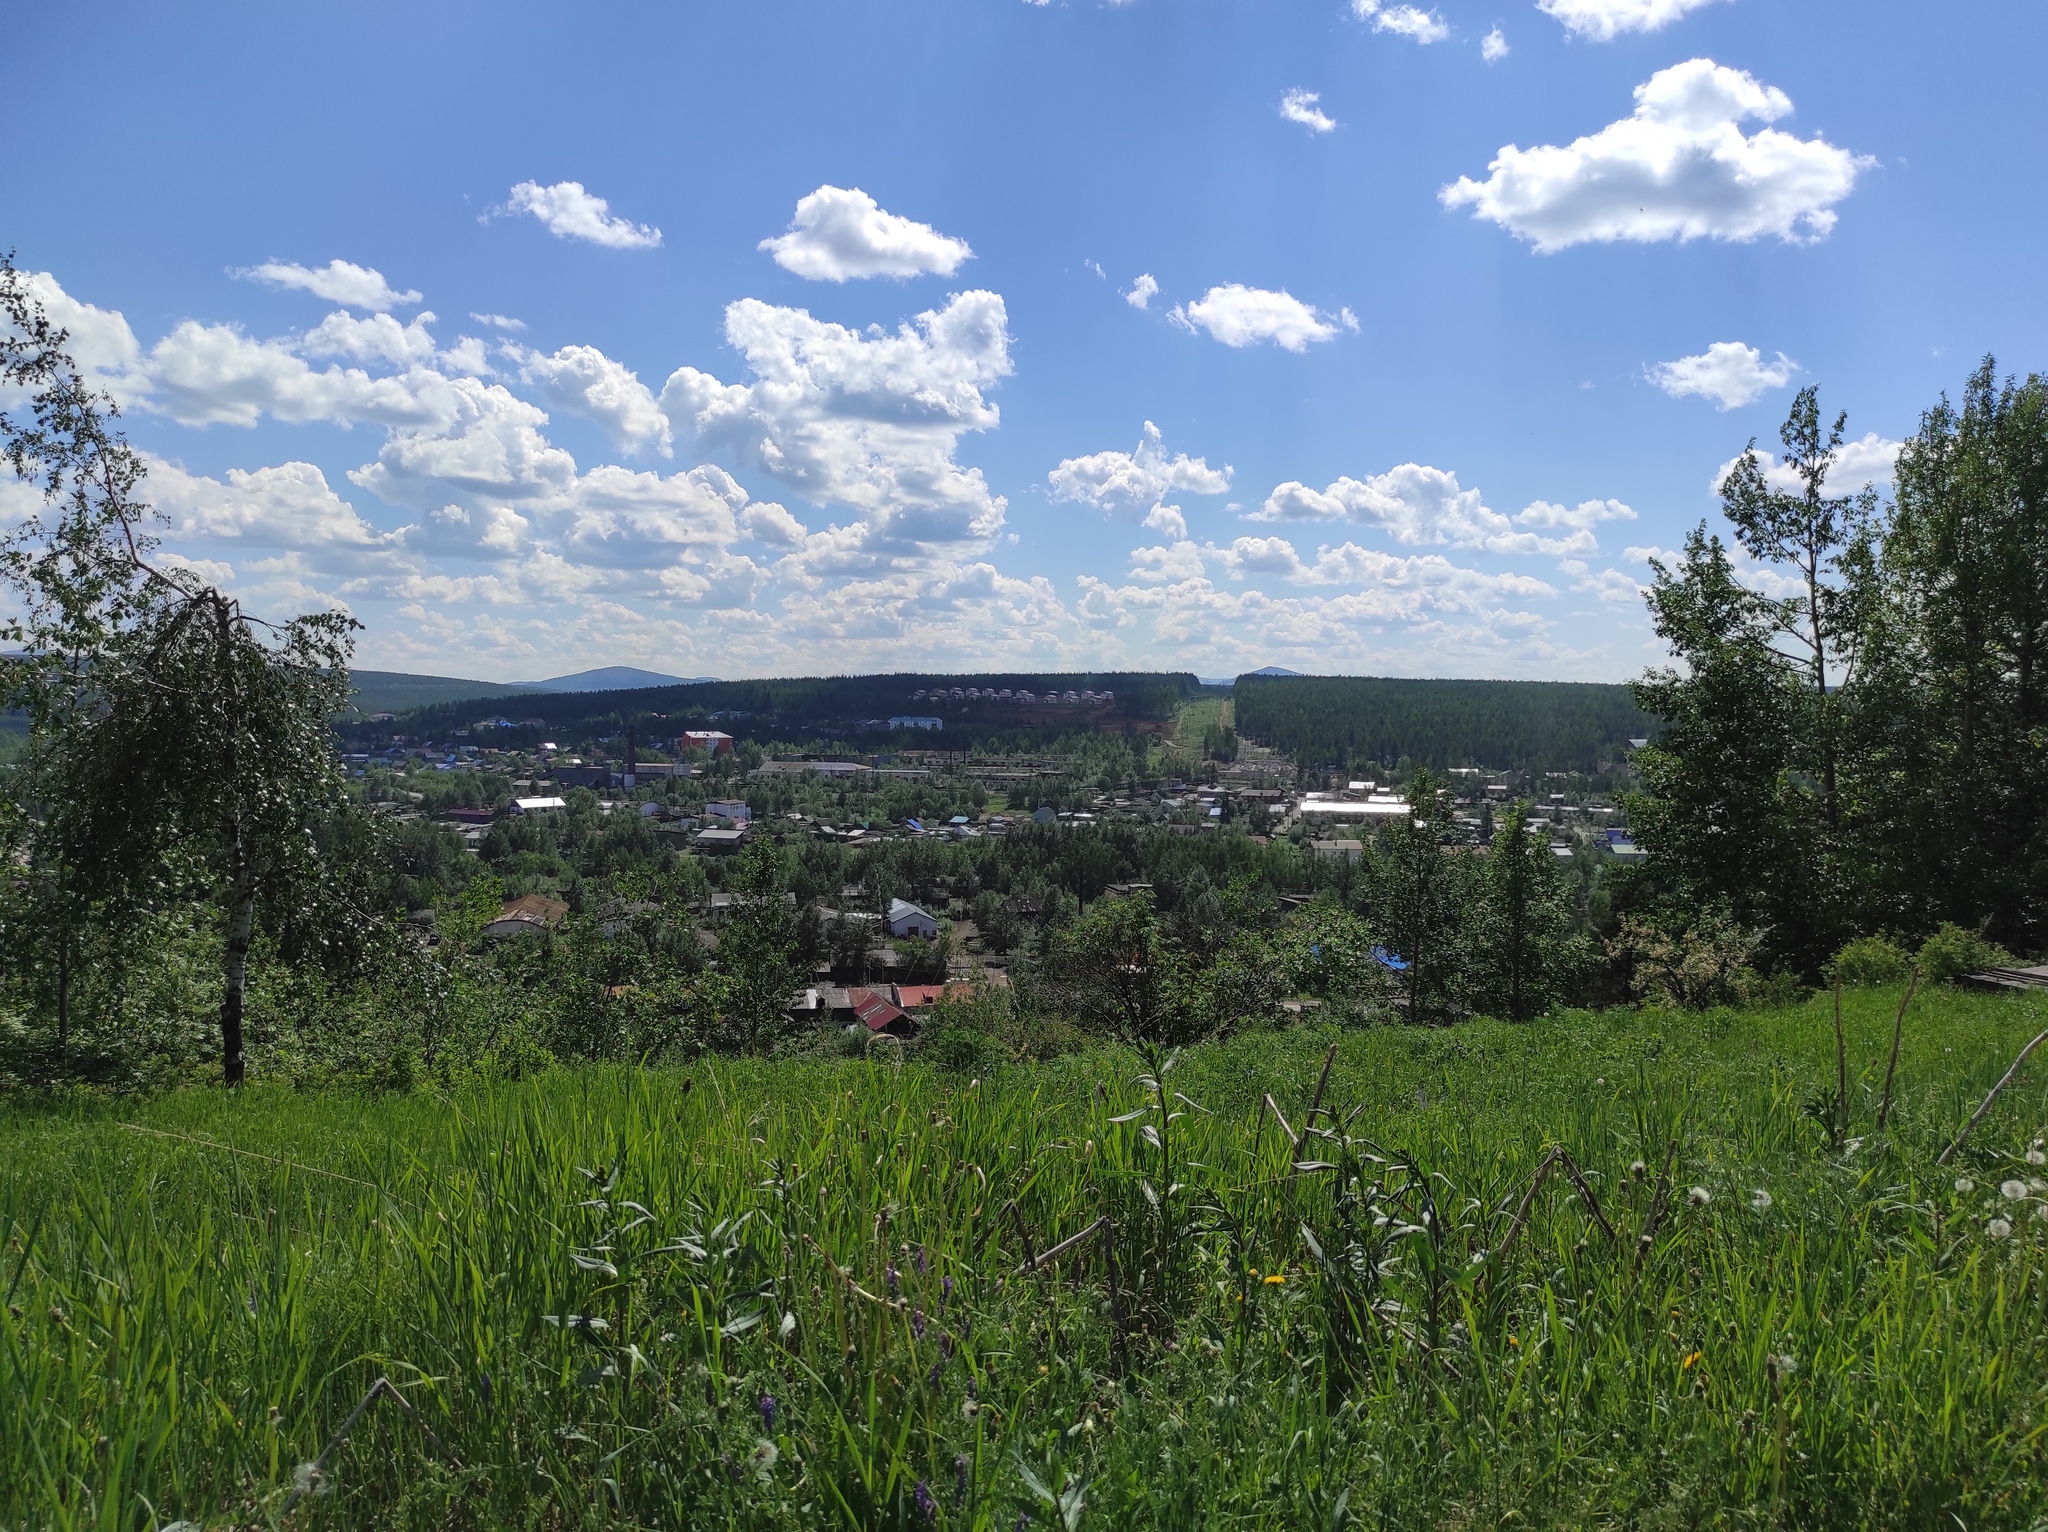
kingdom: Plantae
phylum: Tracheophyta
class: Magnoliopsida
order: Malpighiales
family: Salicaceae
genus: Populus
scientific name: Populus suaveolens
